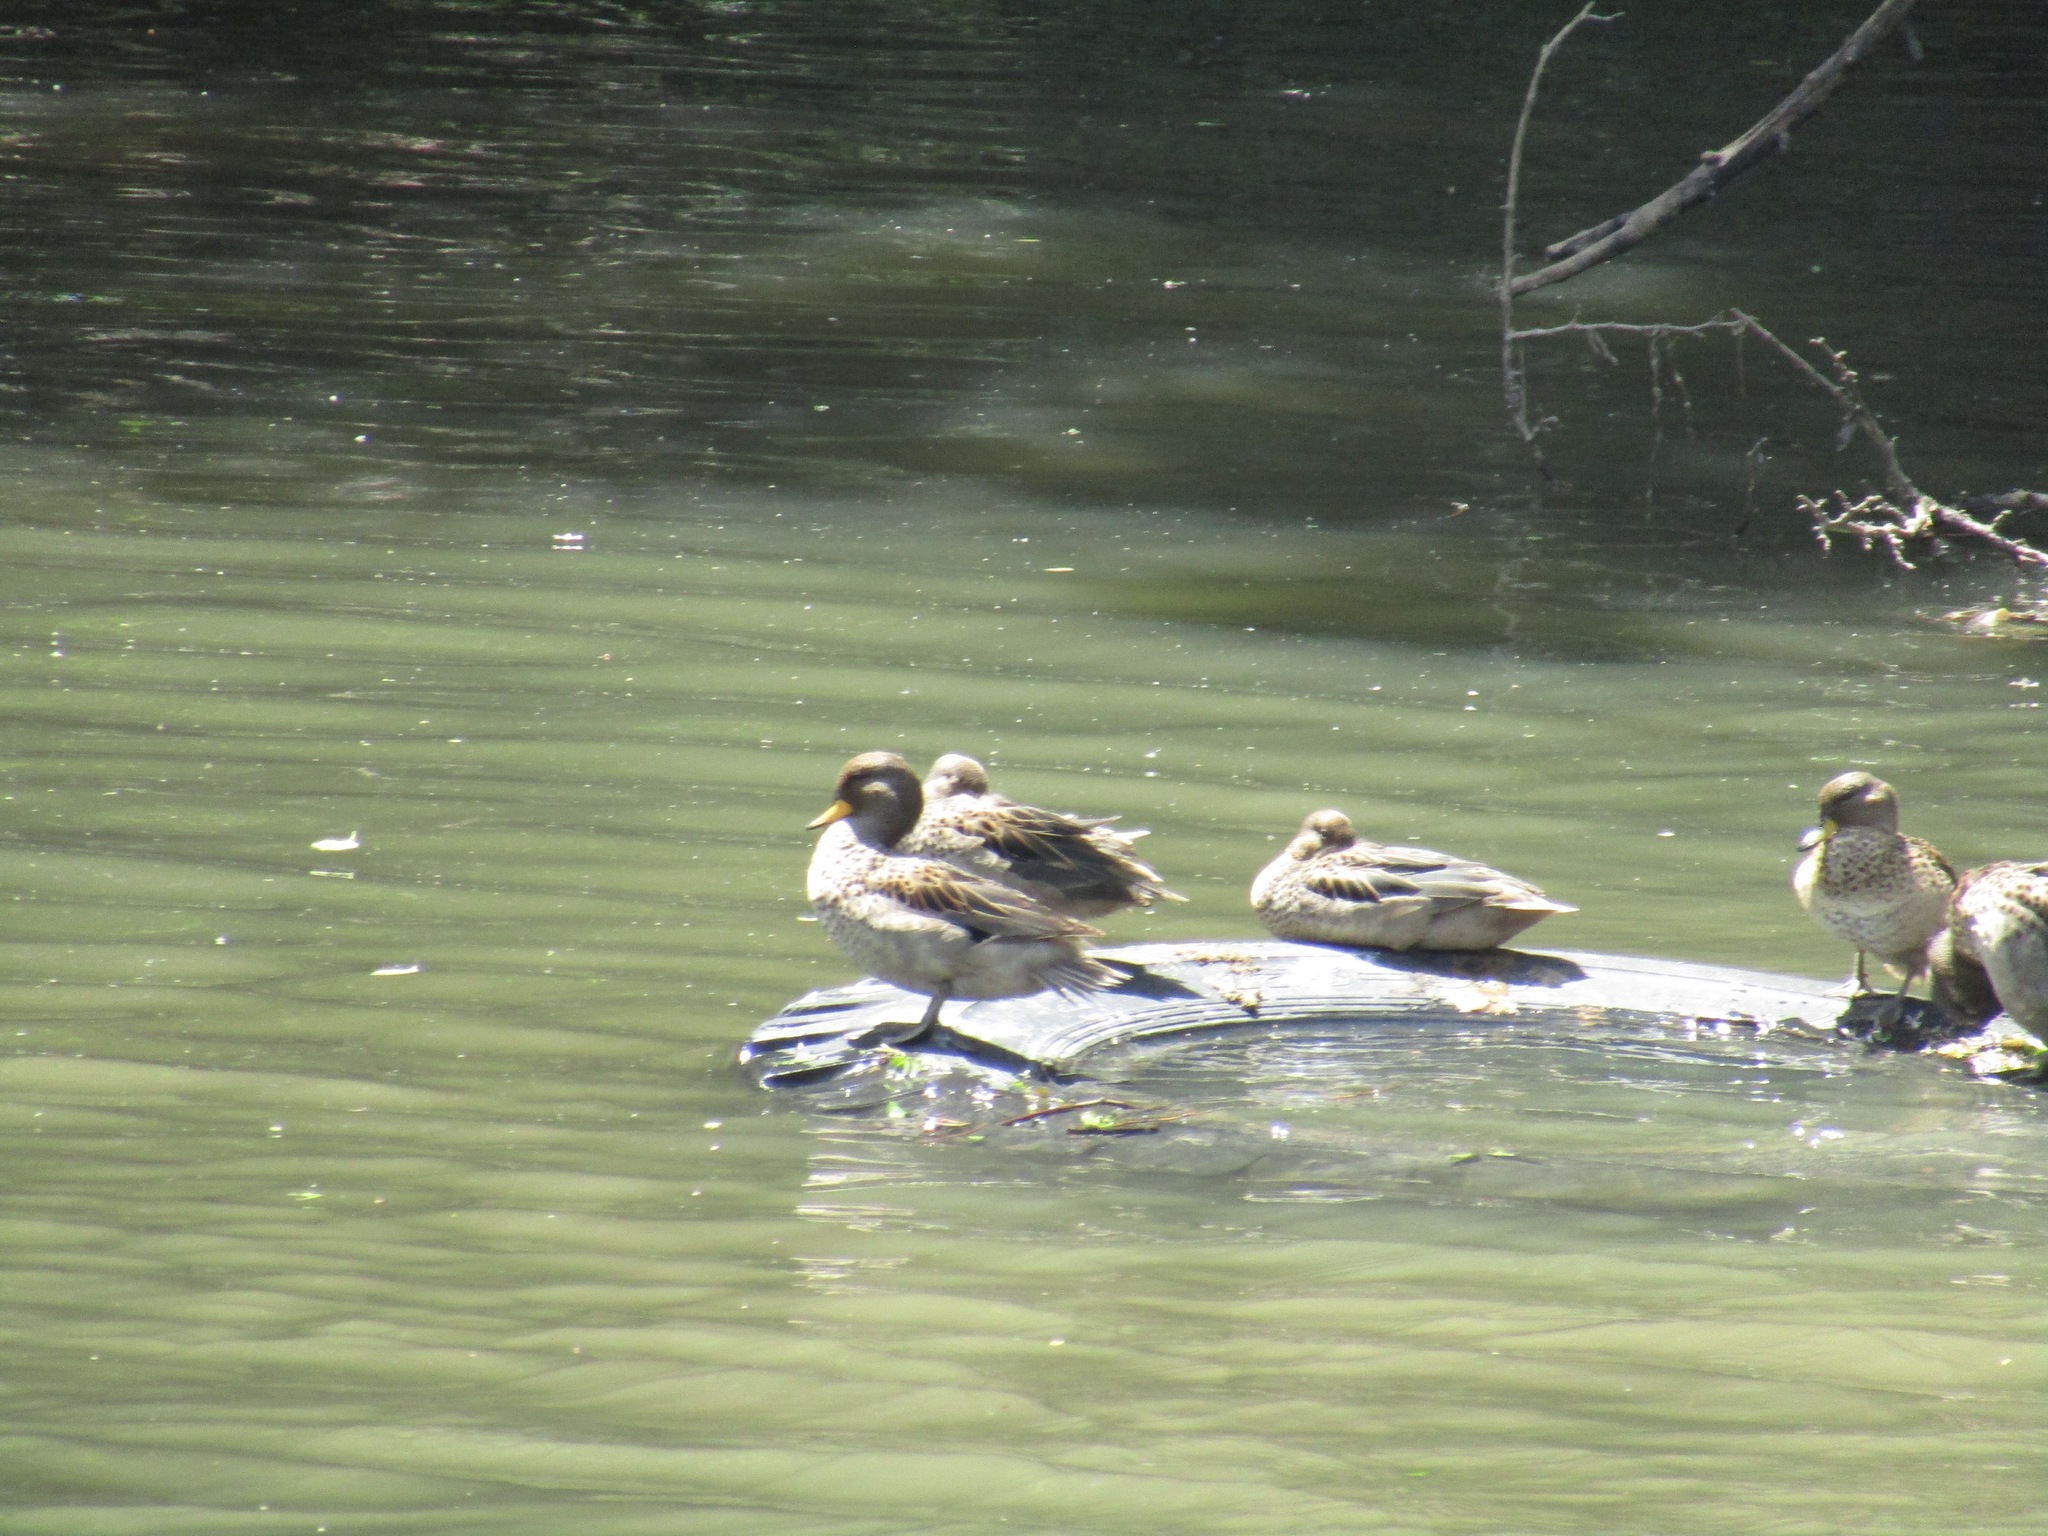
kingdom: Animalia
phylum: Chordata
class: Aves
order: Anseriformes
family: Anatidae
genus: Anas
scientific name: Anas flavirostris
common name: Yellow-billed teal
